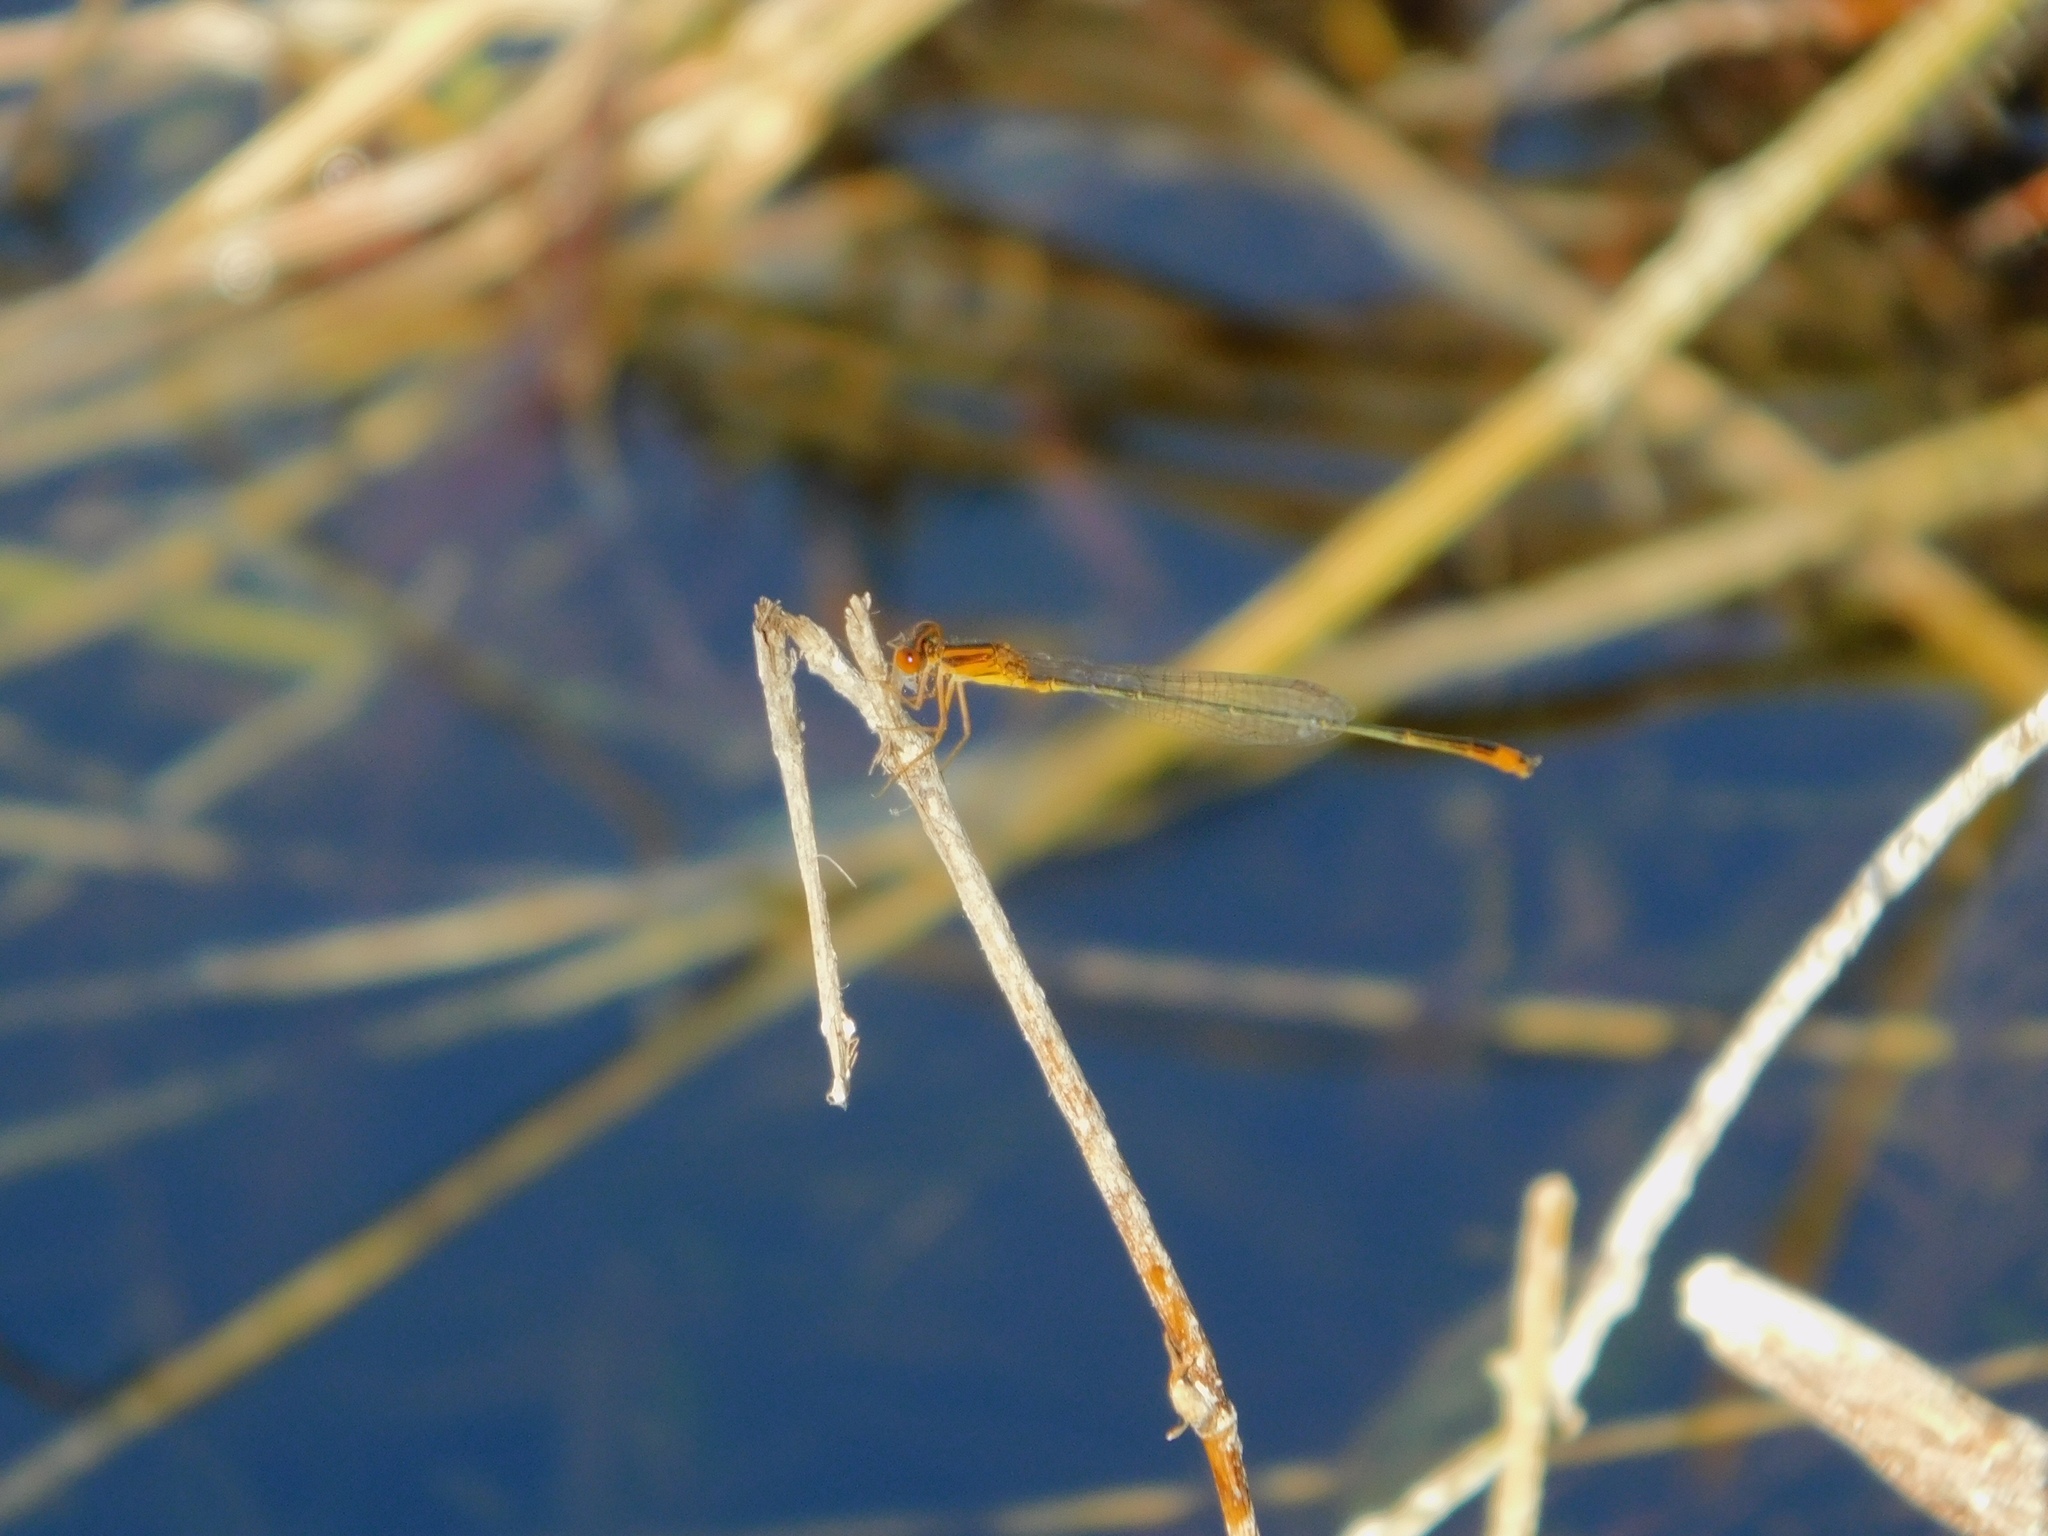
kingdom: Animalia
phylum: Arthropoda
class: Insecta
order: Odonata
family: Coenagrionidae
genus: Enallagma
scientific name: Enallagma pollutum
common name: Florida bluet
